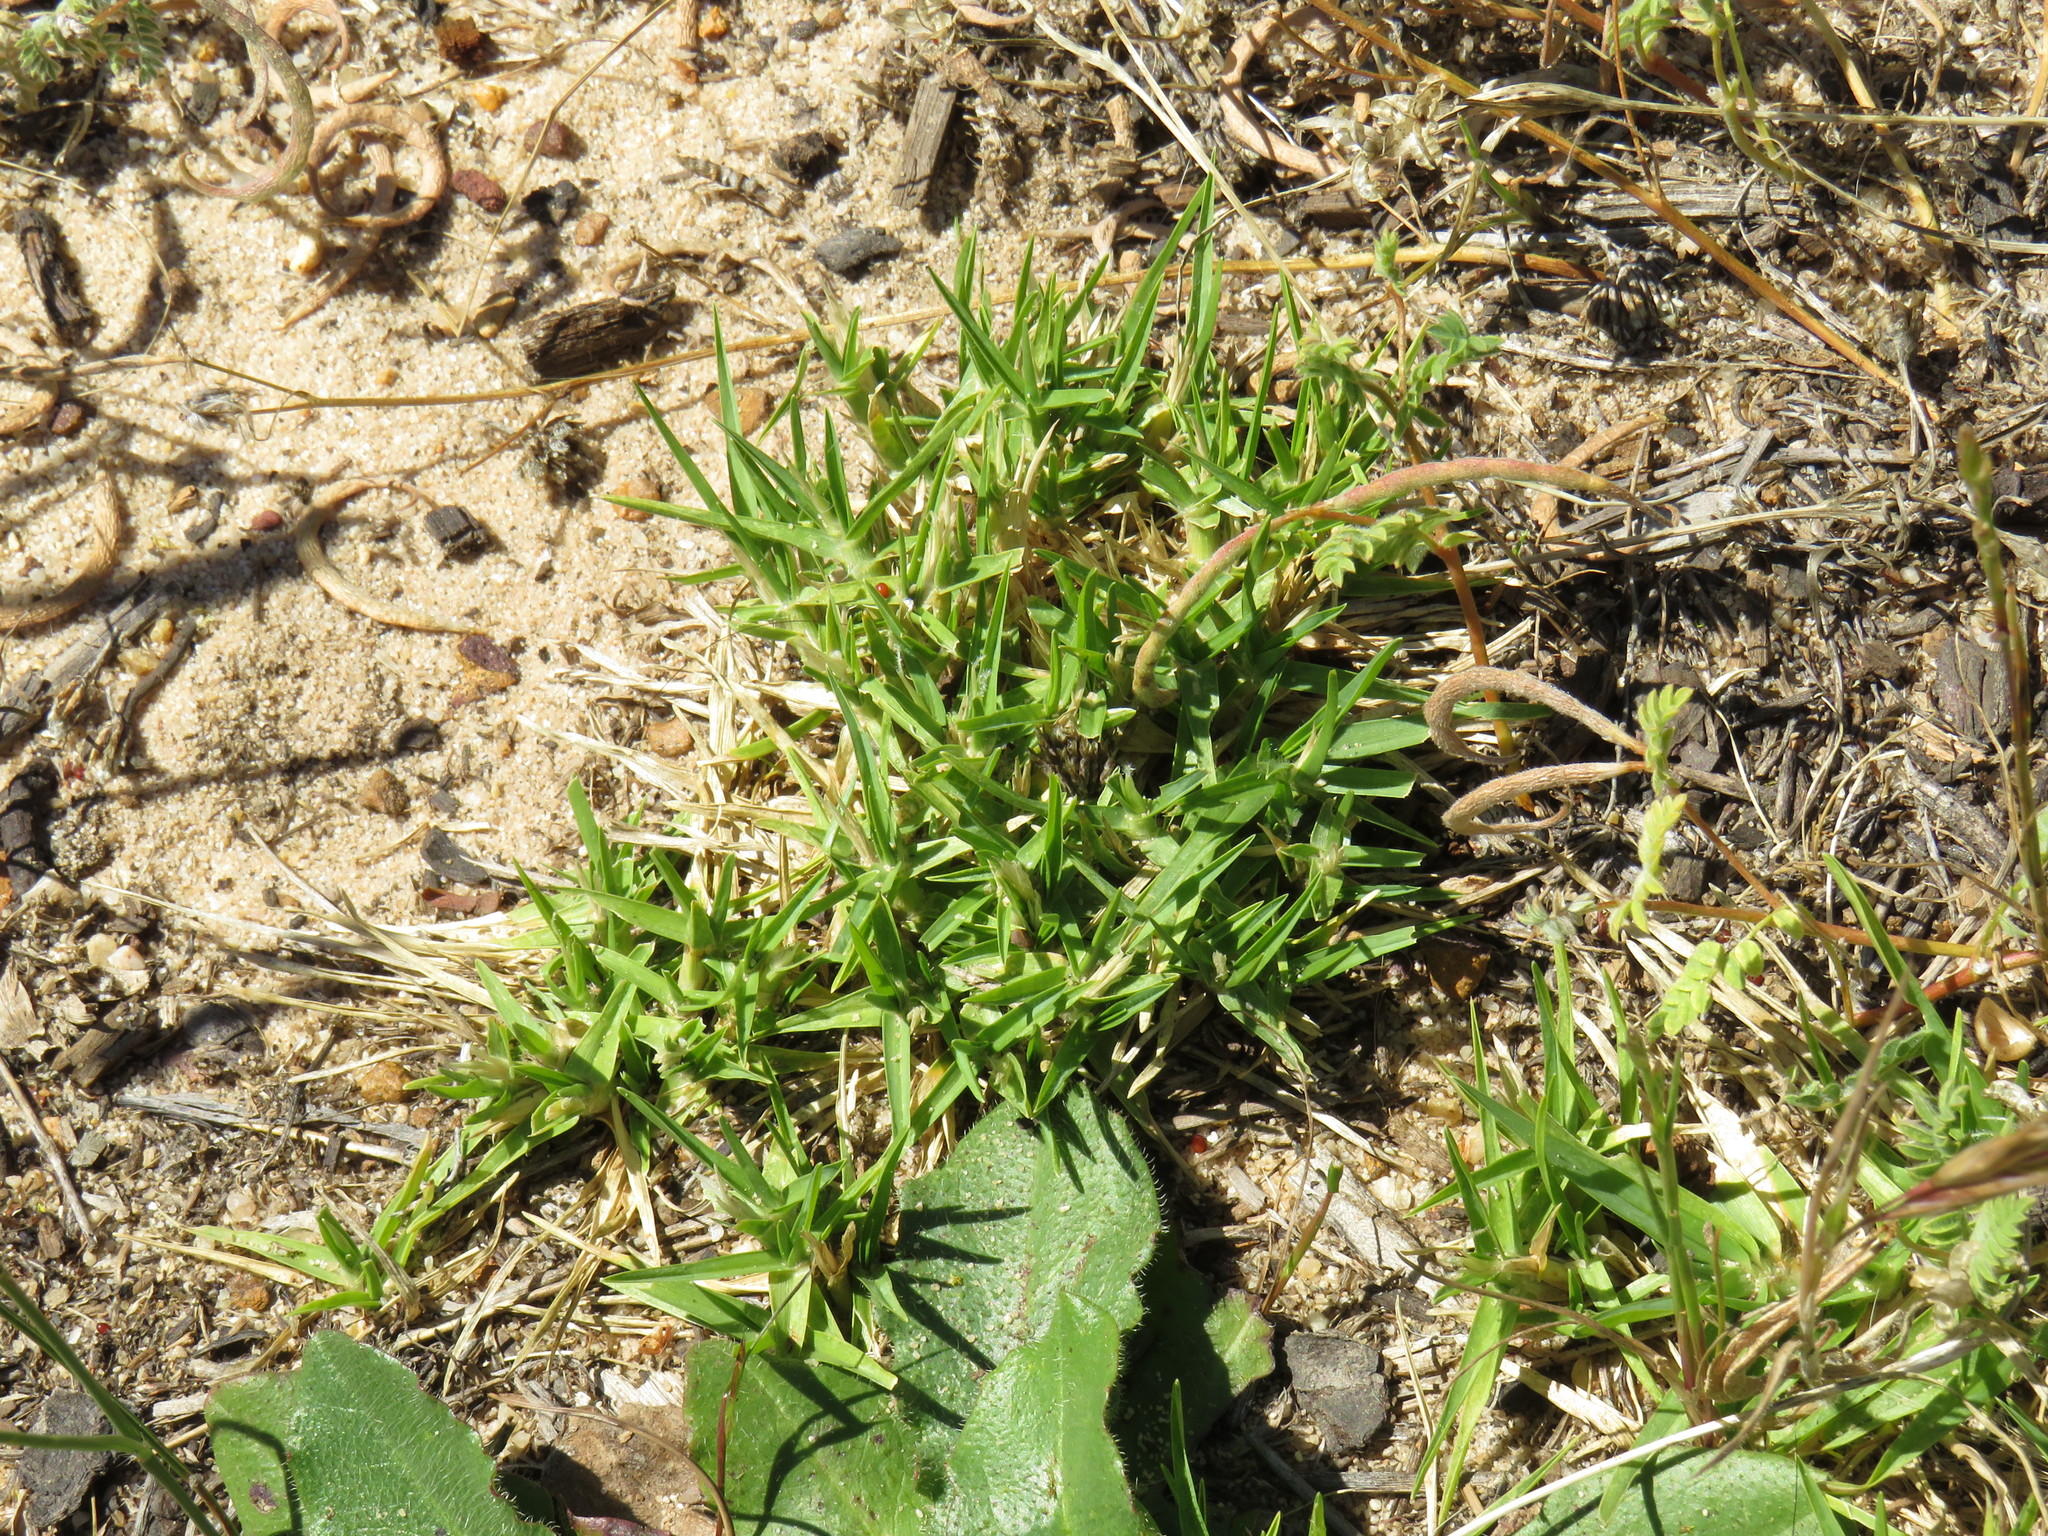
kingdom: Plantae
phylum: Tracheophyta
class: Liliopsida
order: Poales
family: Poaceae
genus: Cenchrus
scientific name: Cenchrus clandestinus
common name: Kikuyugrass
